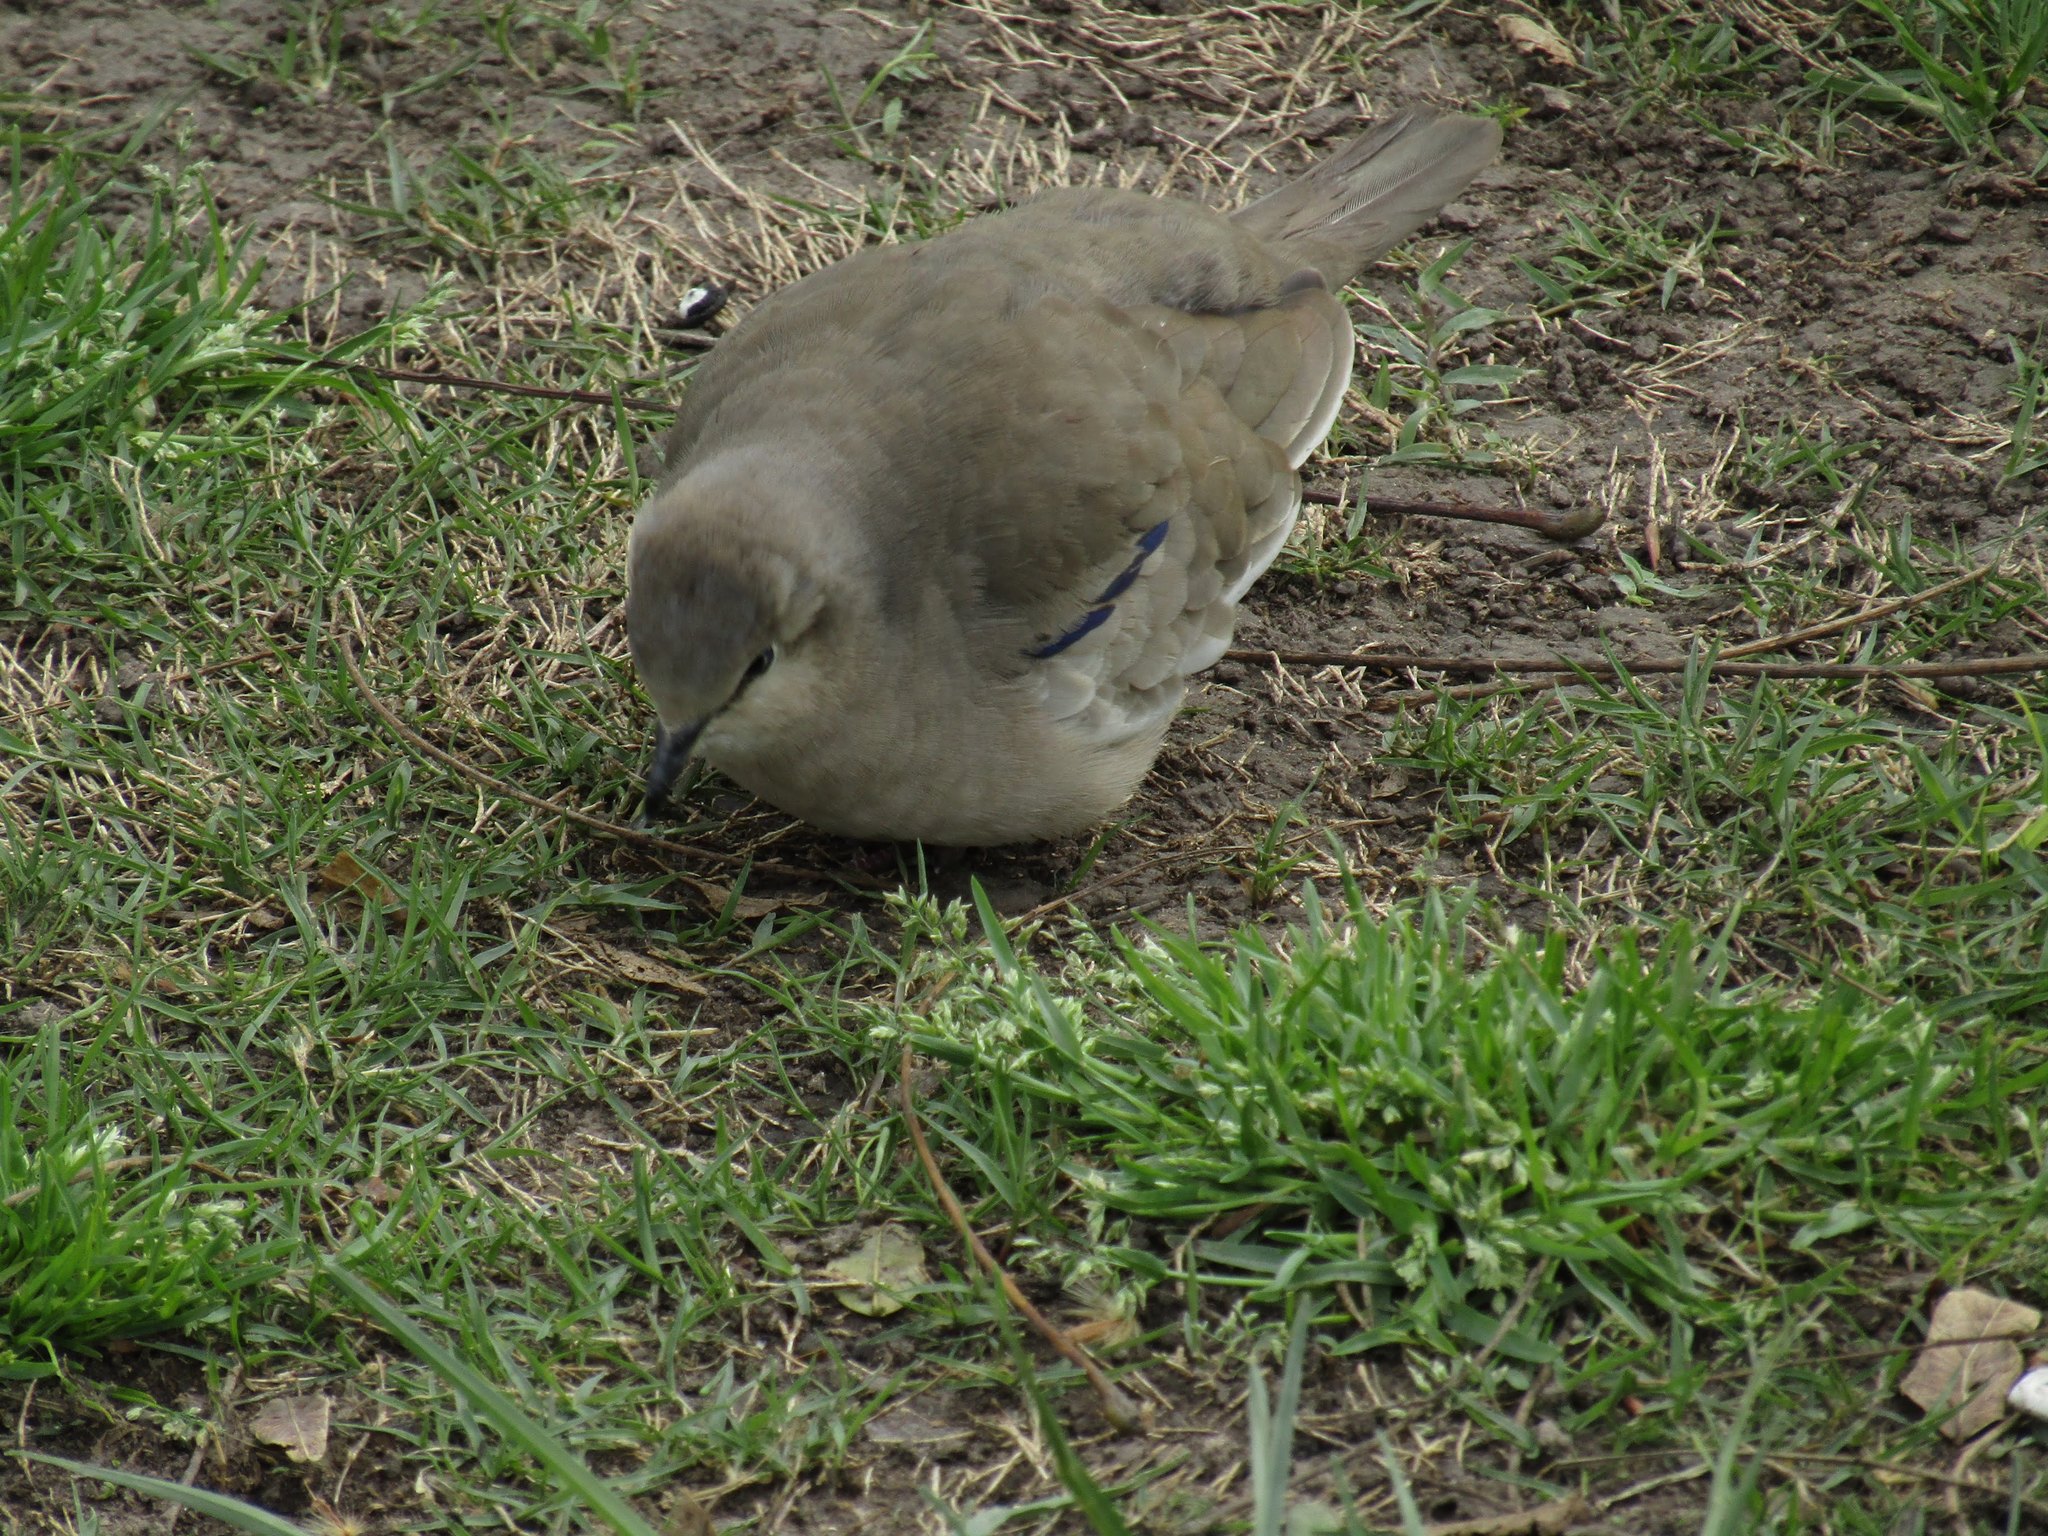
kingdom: Animalia
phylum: Chordata
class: Aves
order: Columbiformes
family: Columbidae
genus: Columbina
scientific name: Columbina picui
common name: Picui ground dove
